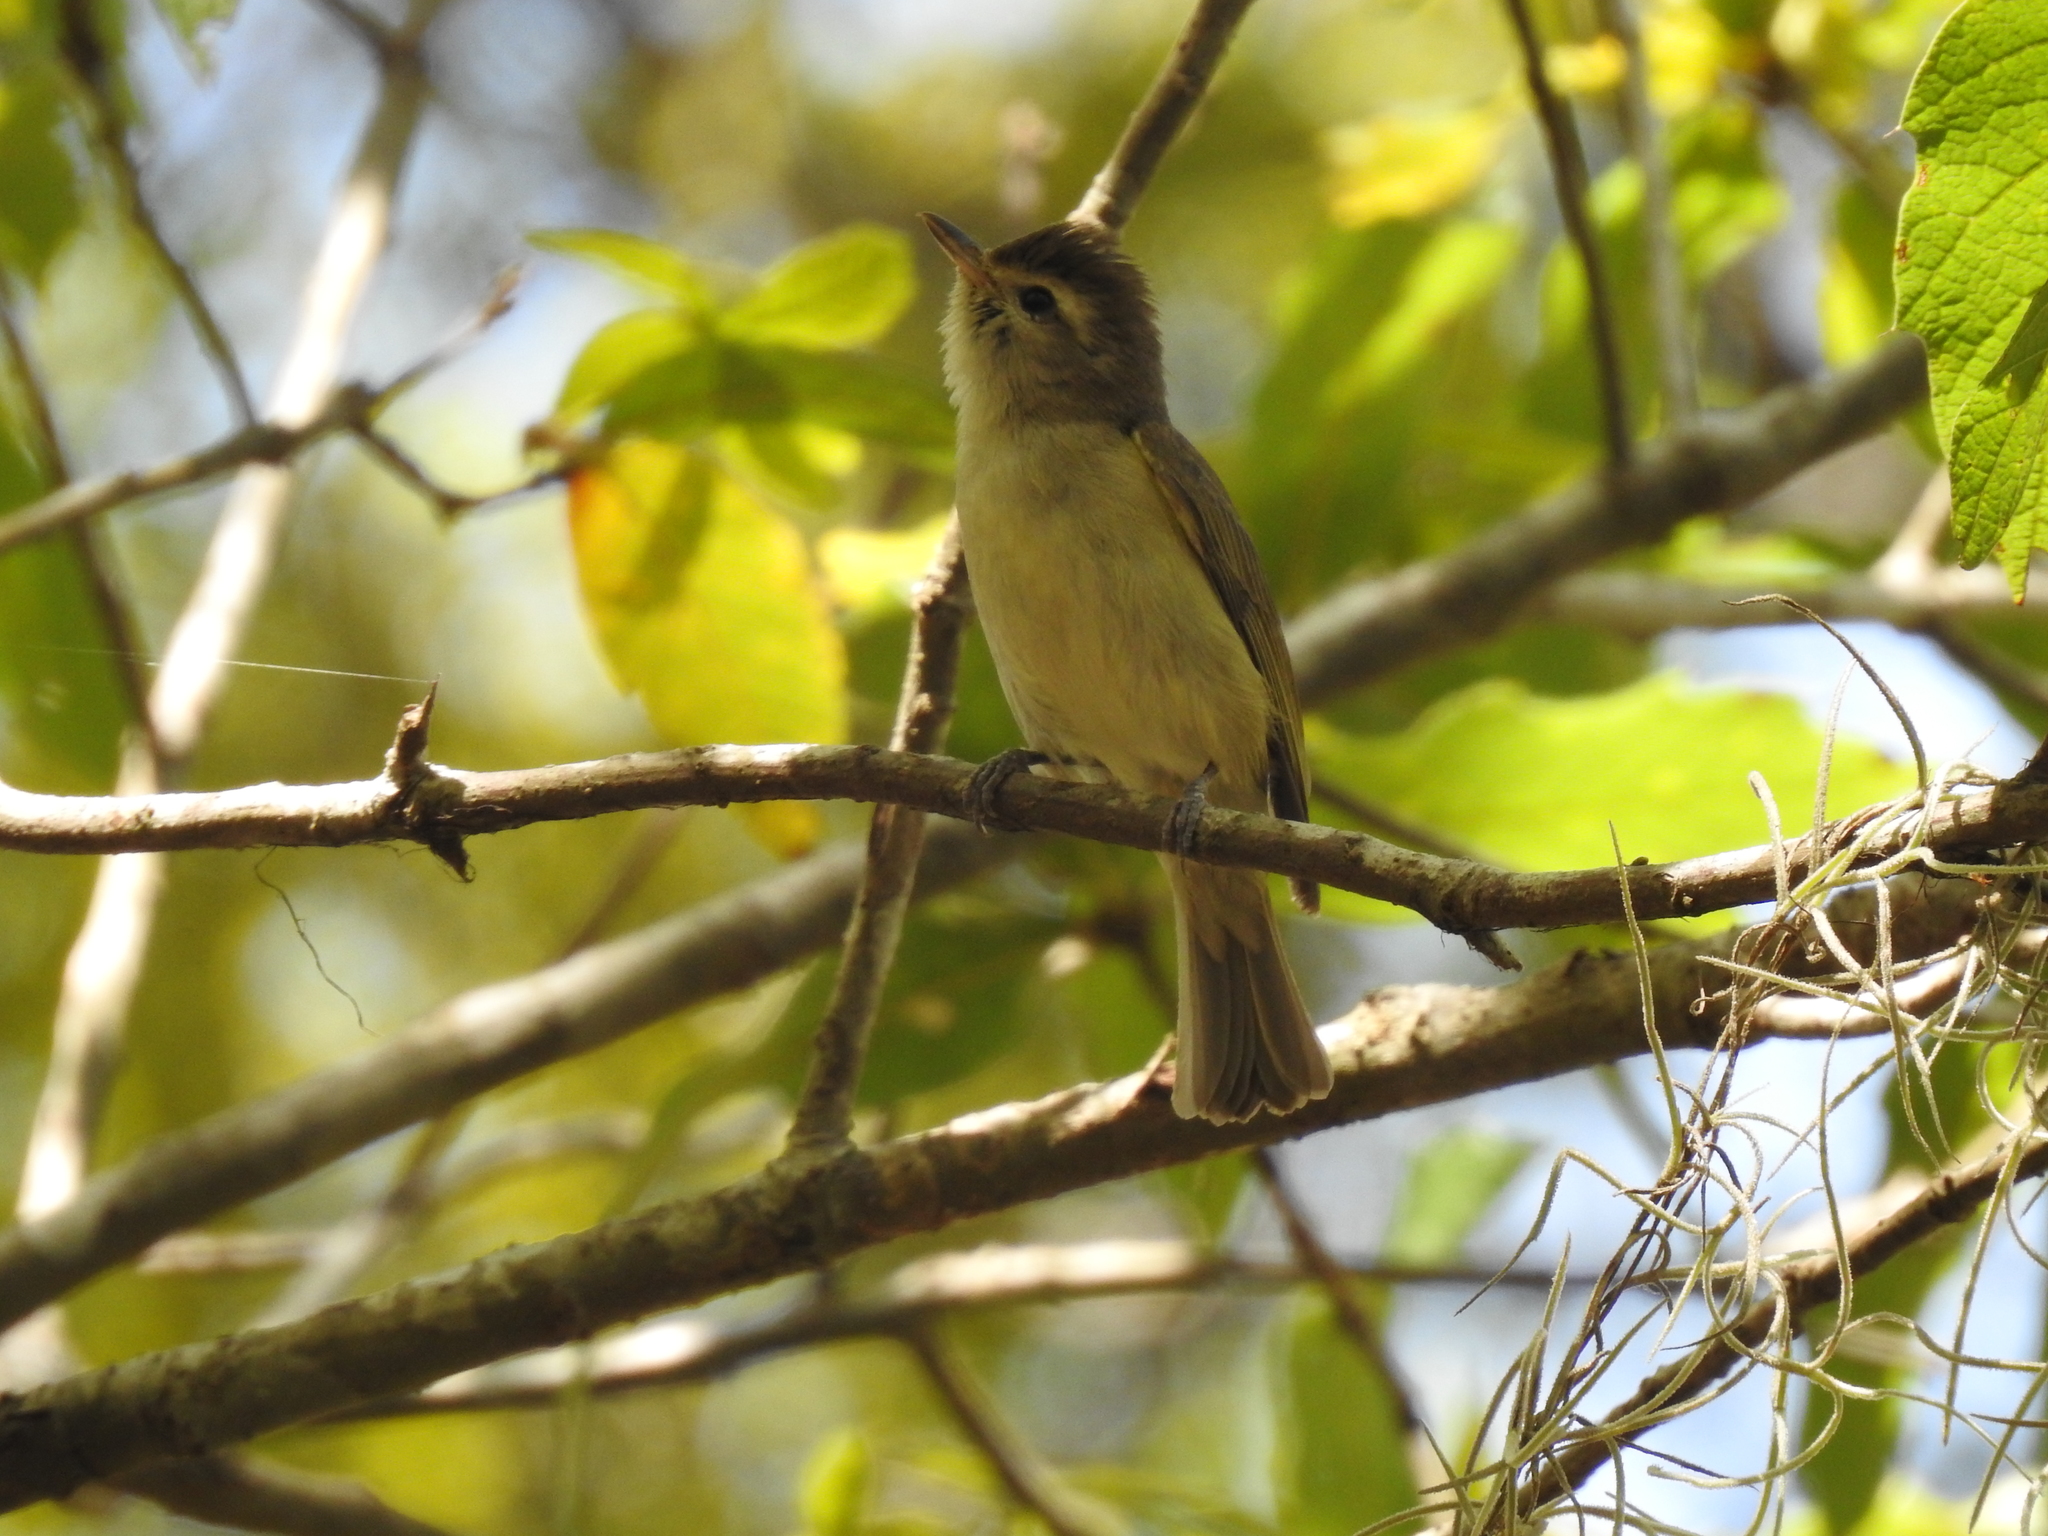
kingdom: Animalia
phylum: Chordata
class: Aves
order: Passeriformes
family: Vireonidae
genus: Vireo
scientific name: Vireo leucophrys
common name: Brown-capped vireo
